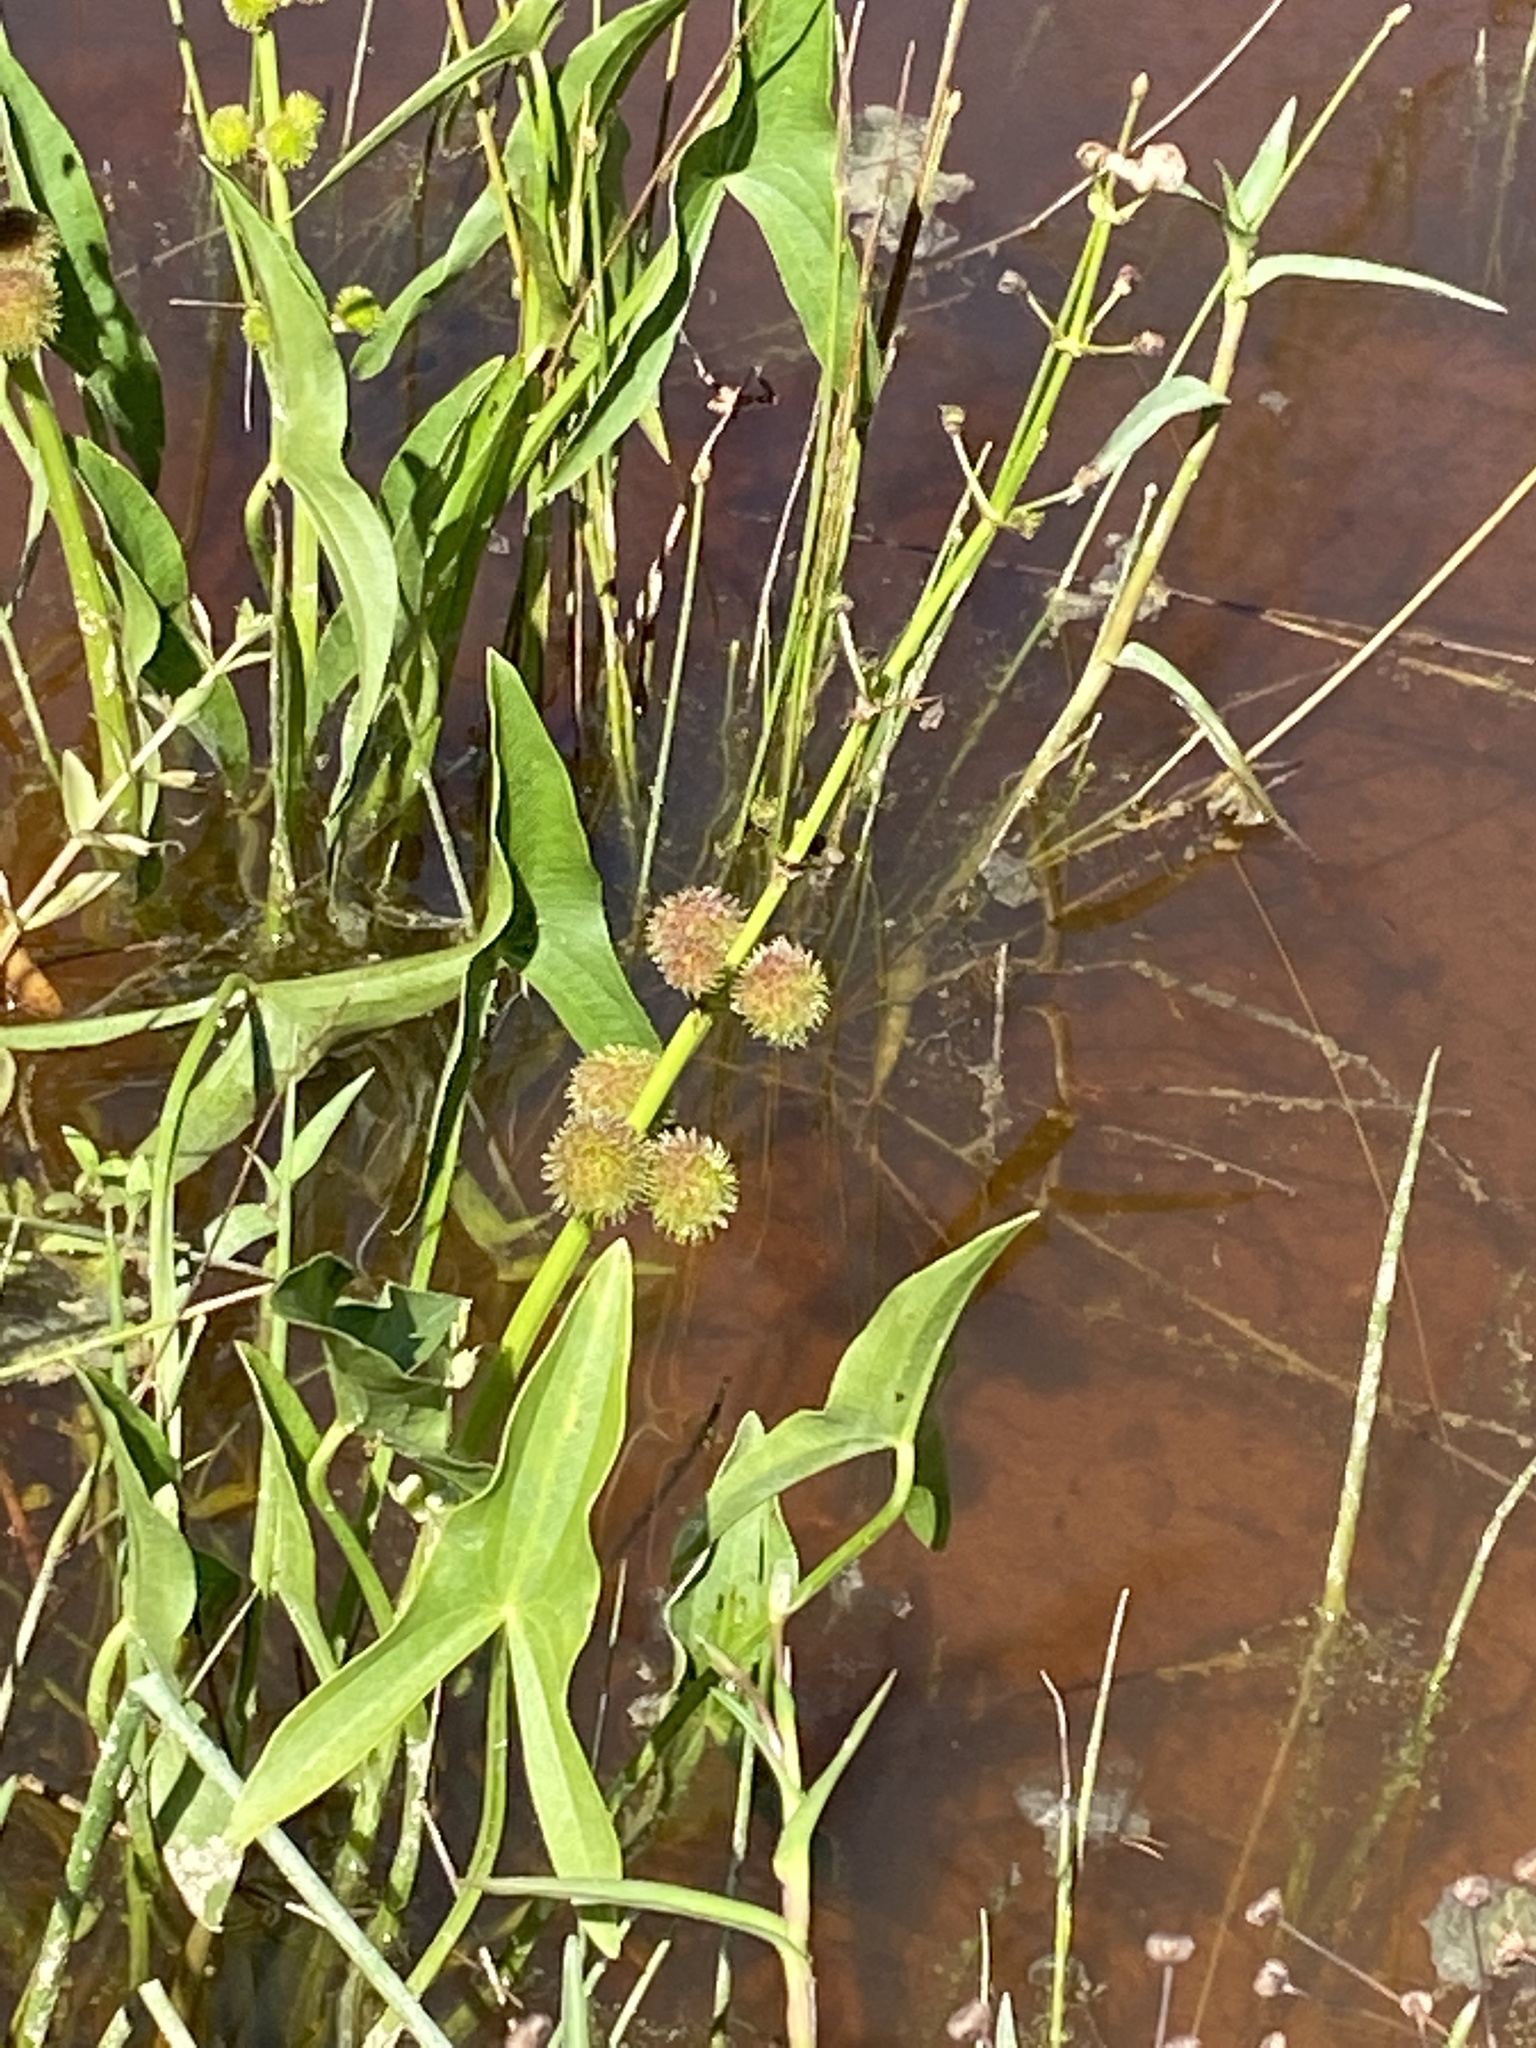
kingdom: Plantae
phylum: Tracheophyta
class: Liliopsida
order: Alismatales
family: Alismataceae
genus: Sagittaria
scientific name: Sagittaria australis
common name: Appalachian arrowhead
